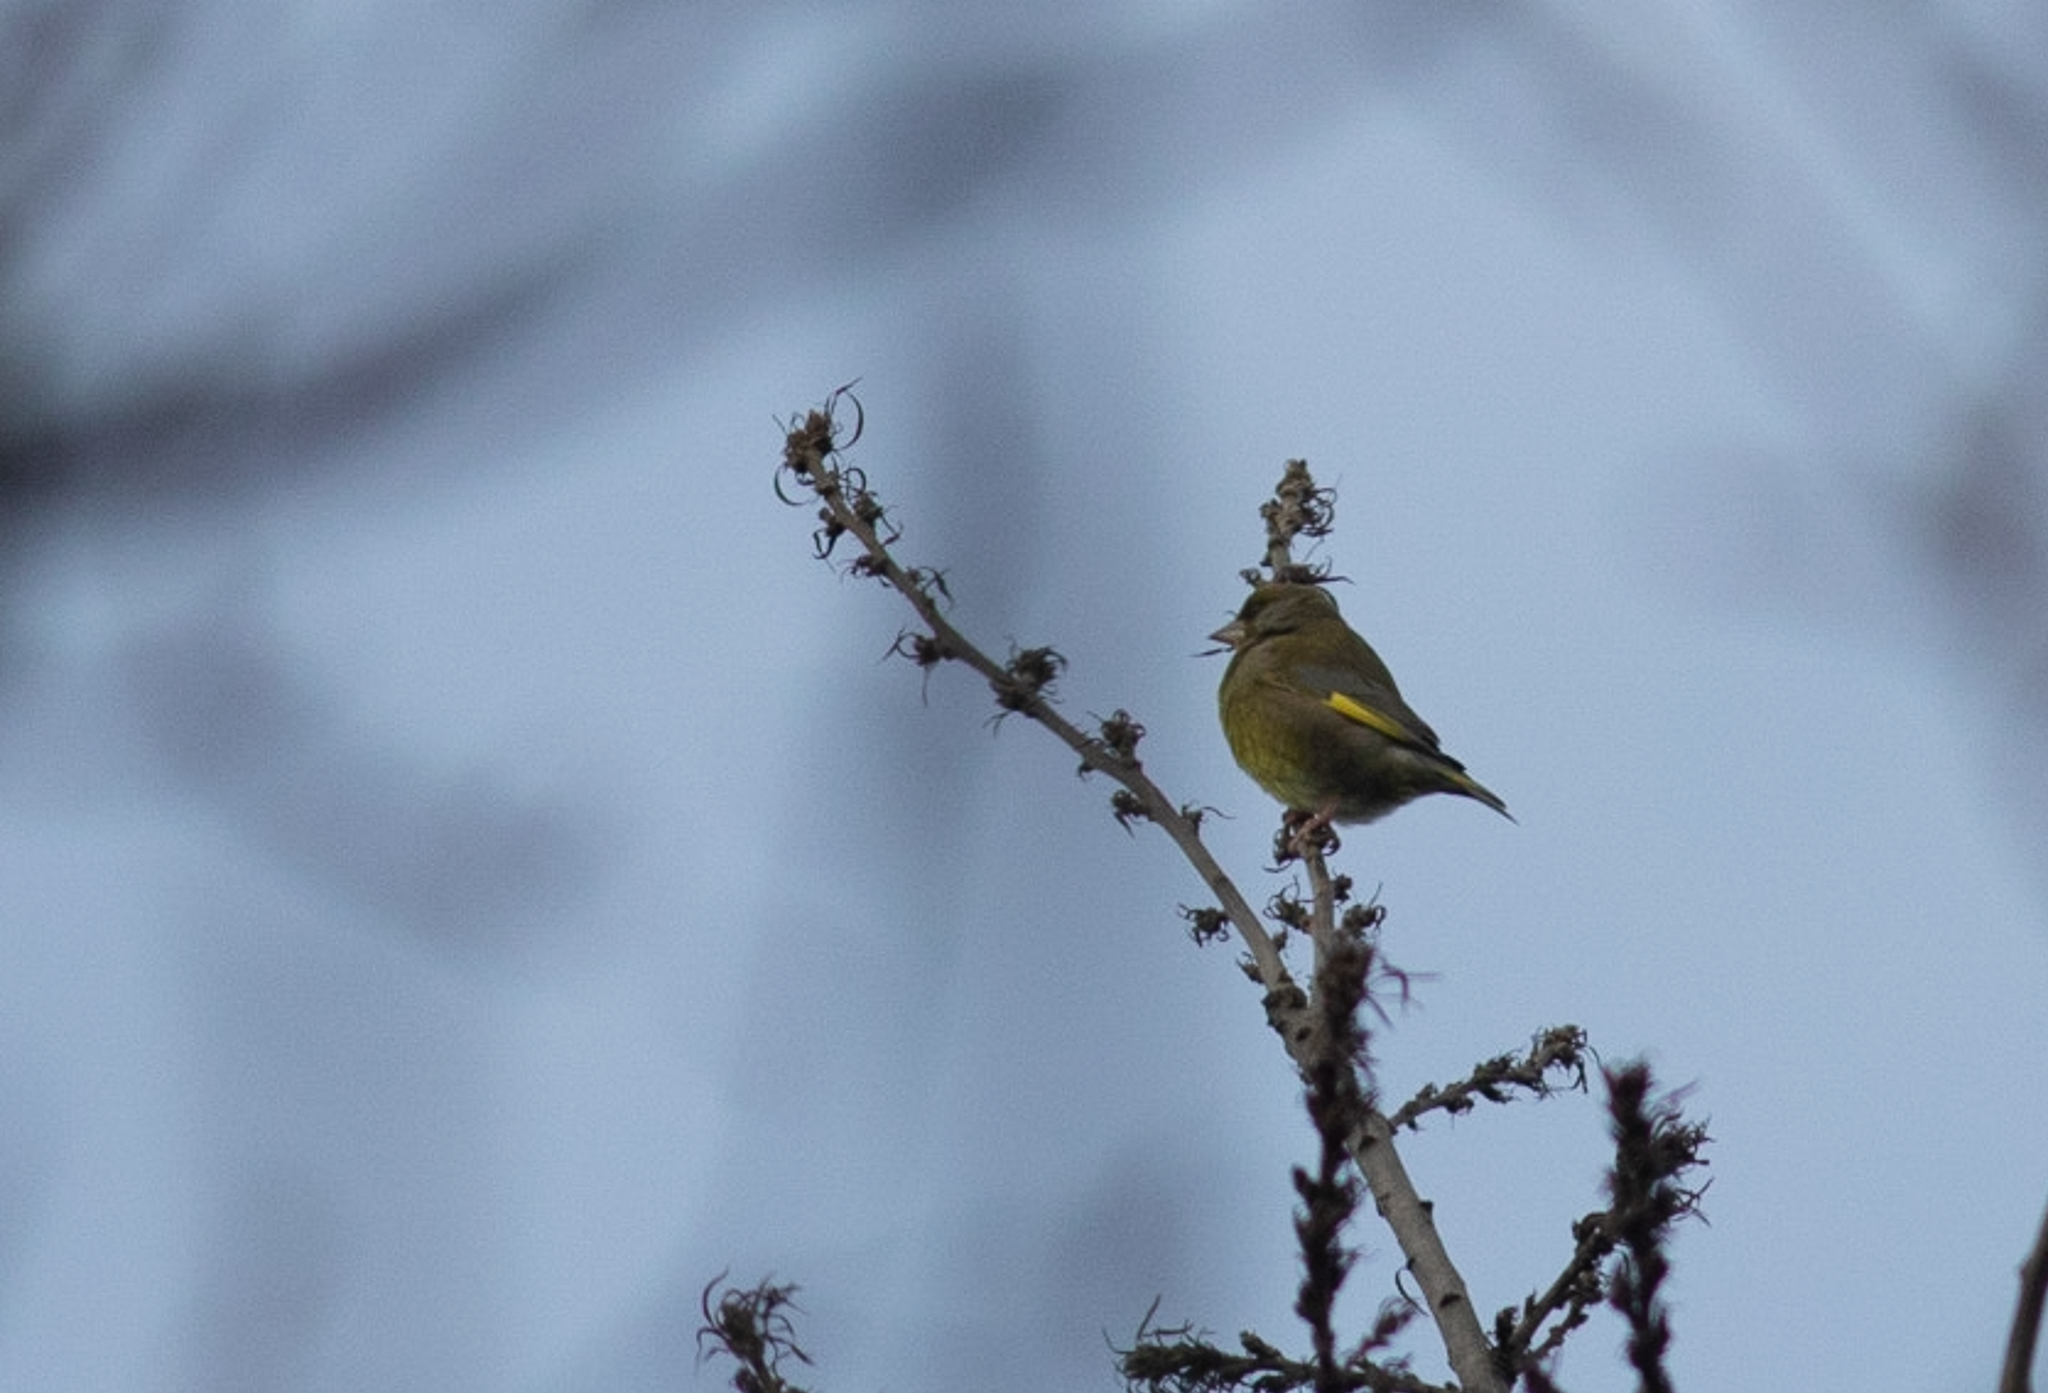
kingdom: Plantae
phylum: Tracheophyta
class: Liliopsida
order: Poales
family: Poaceae
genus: Chloris
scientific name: Chloris chloris
